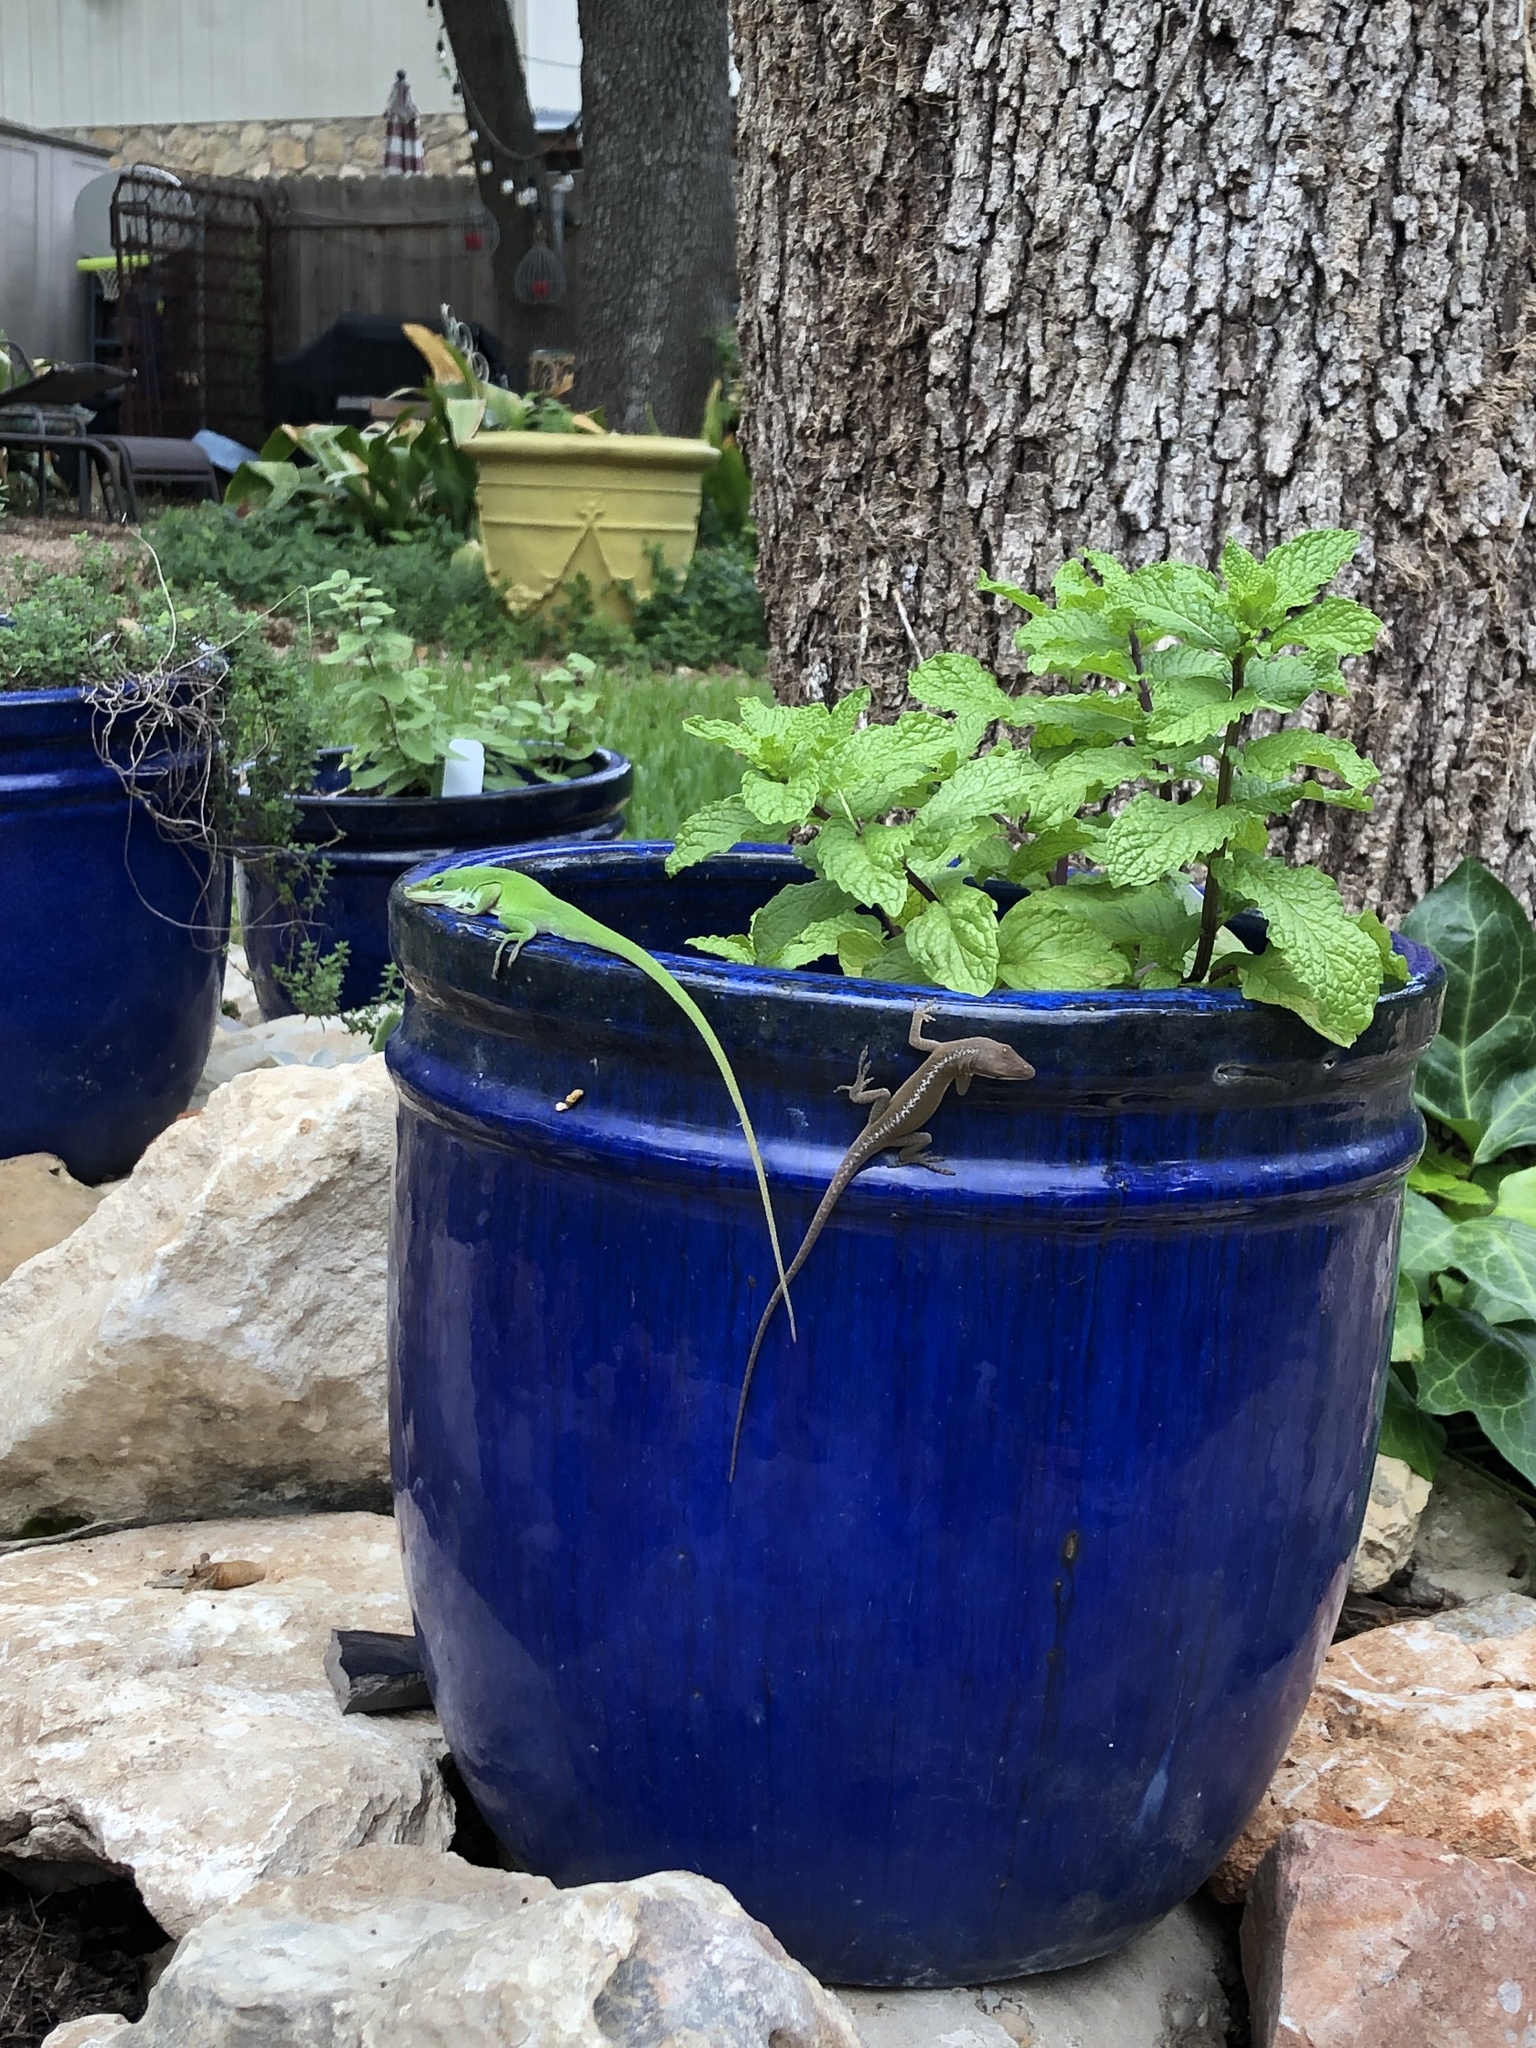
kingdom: Animalia
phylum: Chordata
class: Squamata
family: Dactyloidae
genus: Anolis
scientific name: Anolis carolinensis
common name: Green anole
